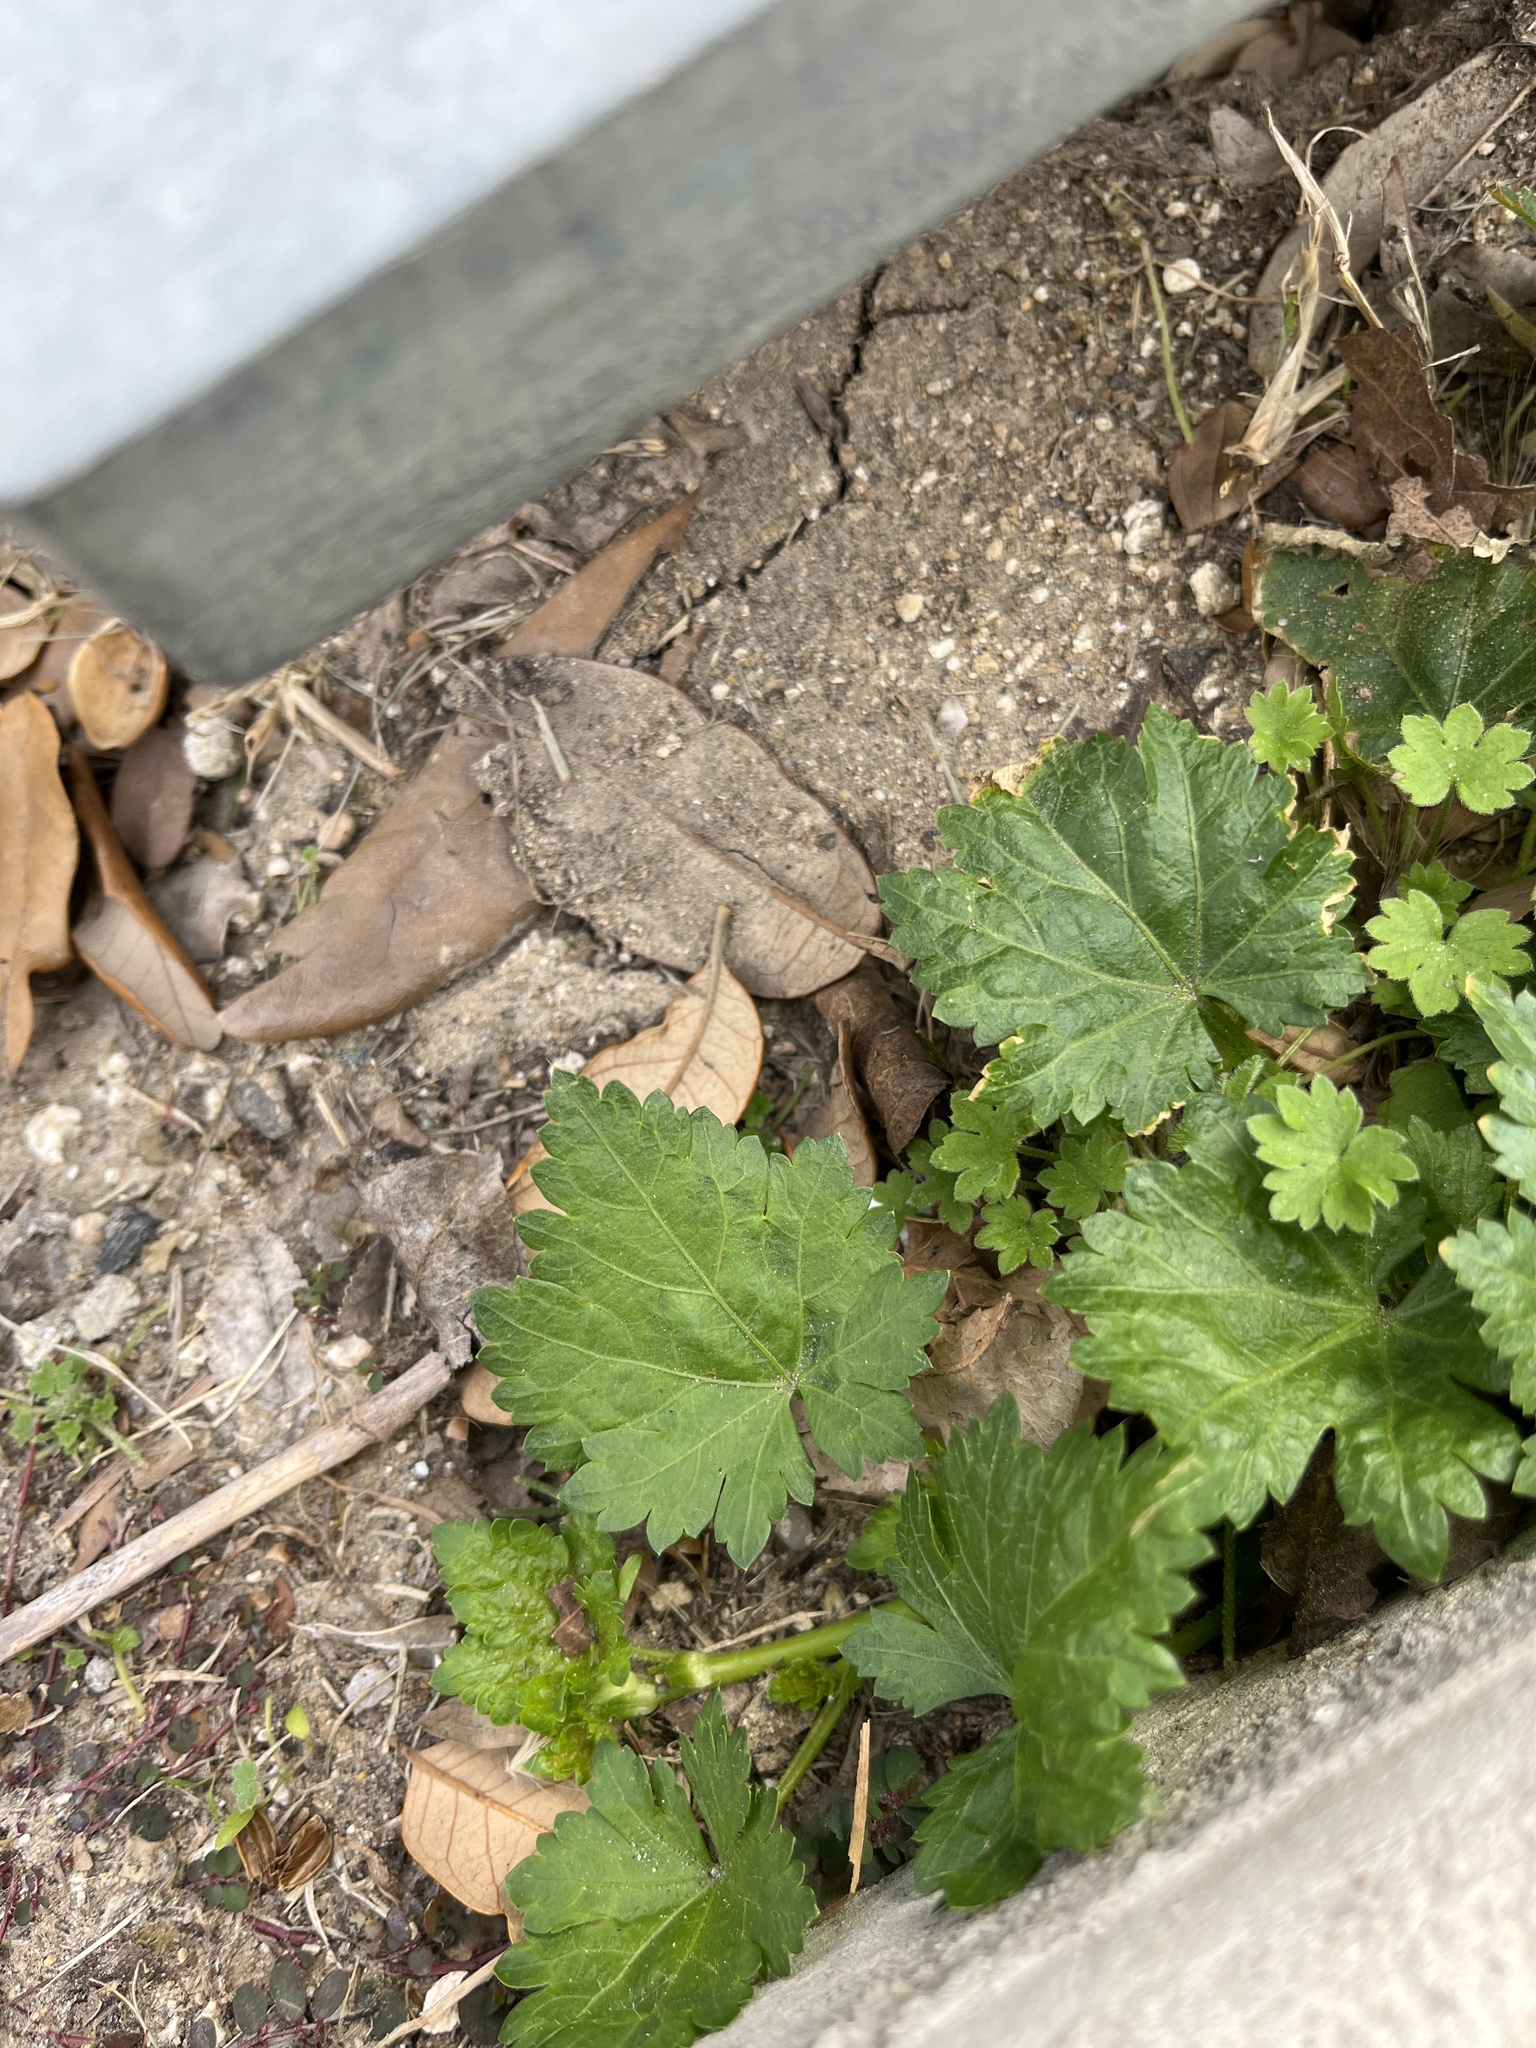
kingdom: Plantae
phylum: Tracheophyta
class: Magnoliopsida
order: Malvales
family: Malvaceae
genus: Modiola
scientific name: Modiola caroliniana
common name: Carolina bristlemallow
